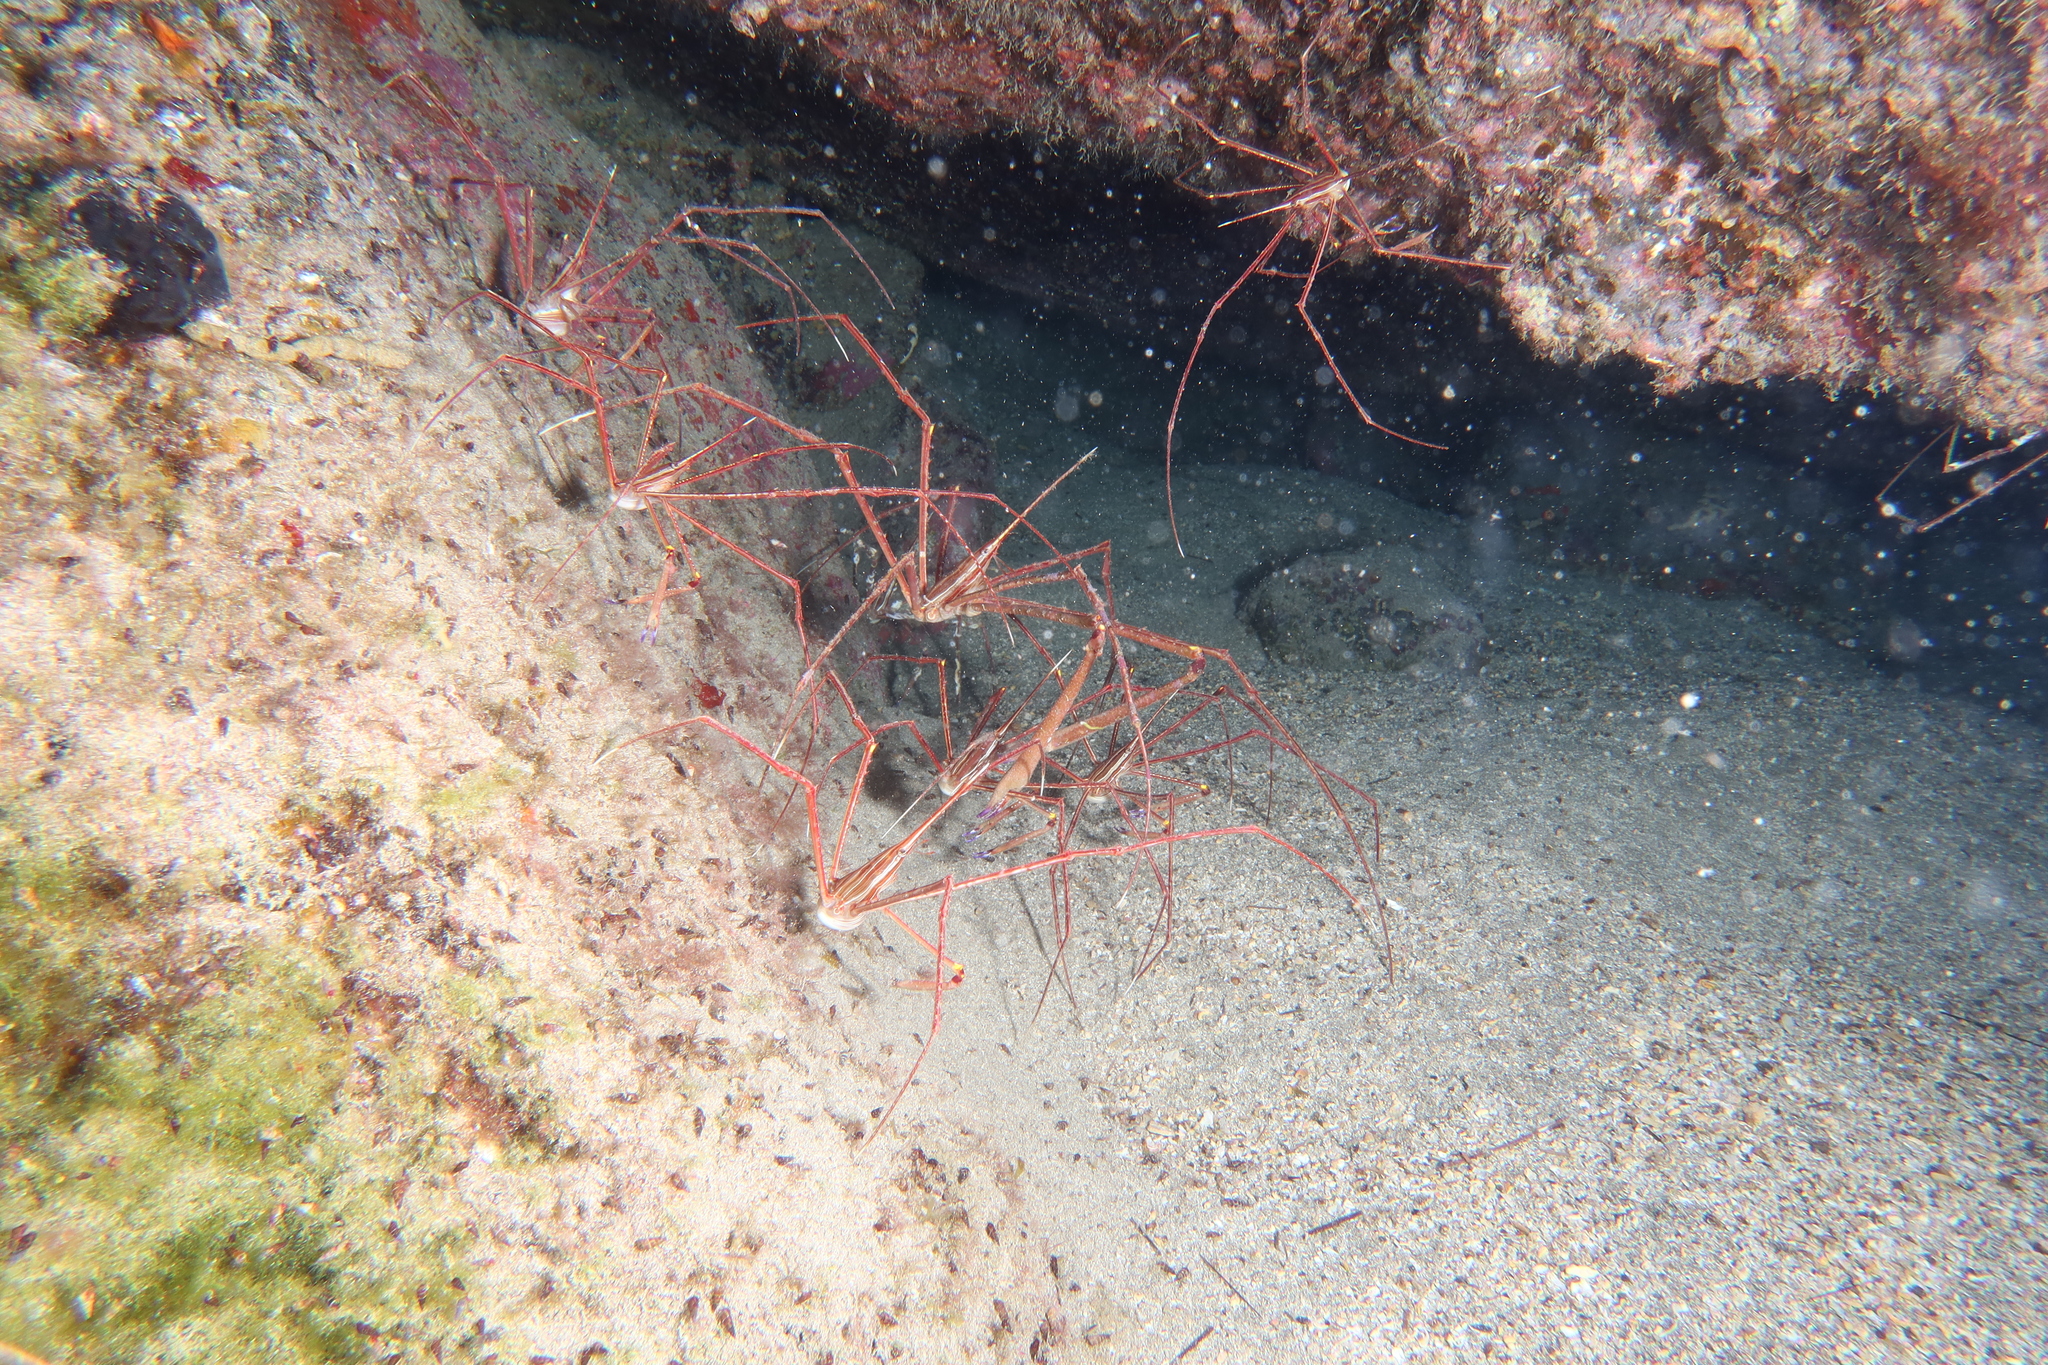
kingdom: Animalia
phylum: Arthropoda
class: Malacostraca
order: Decapoda
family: Inachoididae
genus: Stenorhynchus
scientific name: Stenorhynchus lanceolatus
